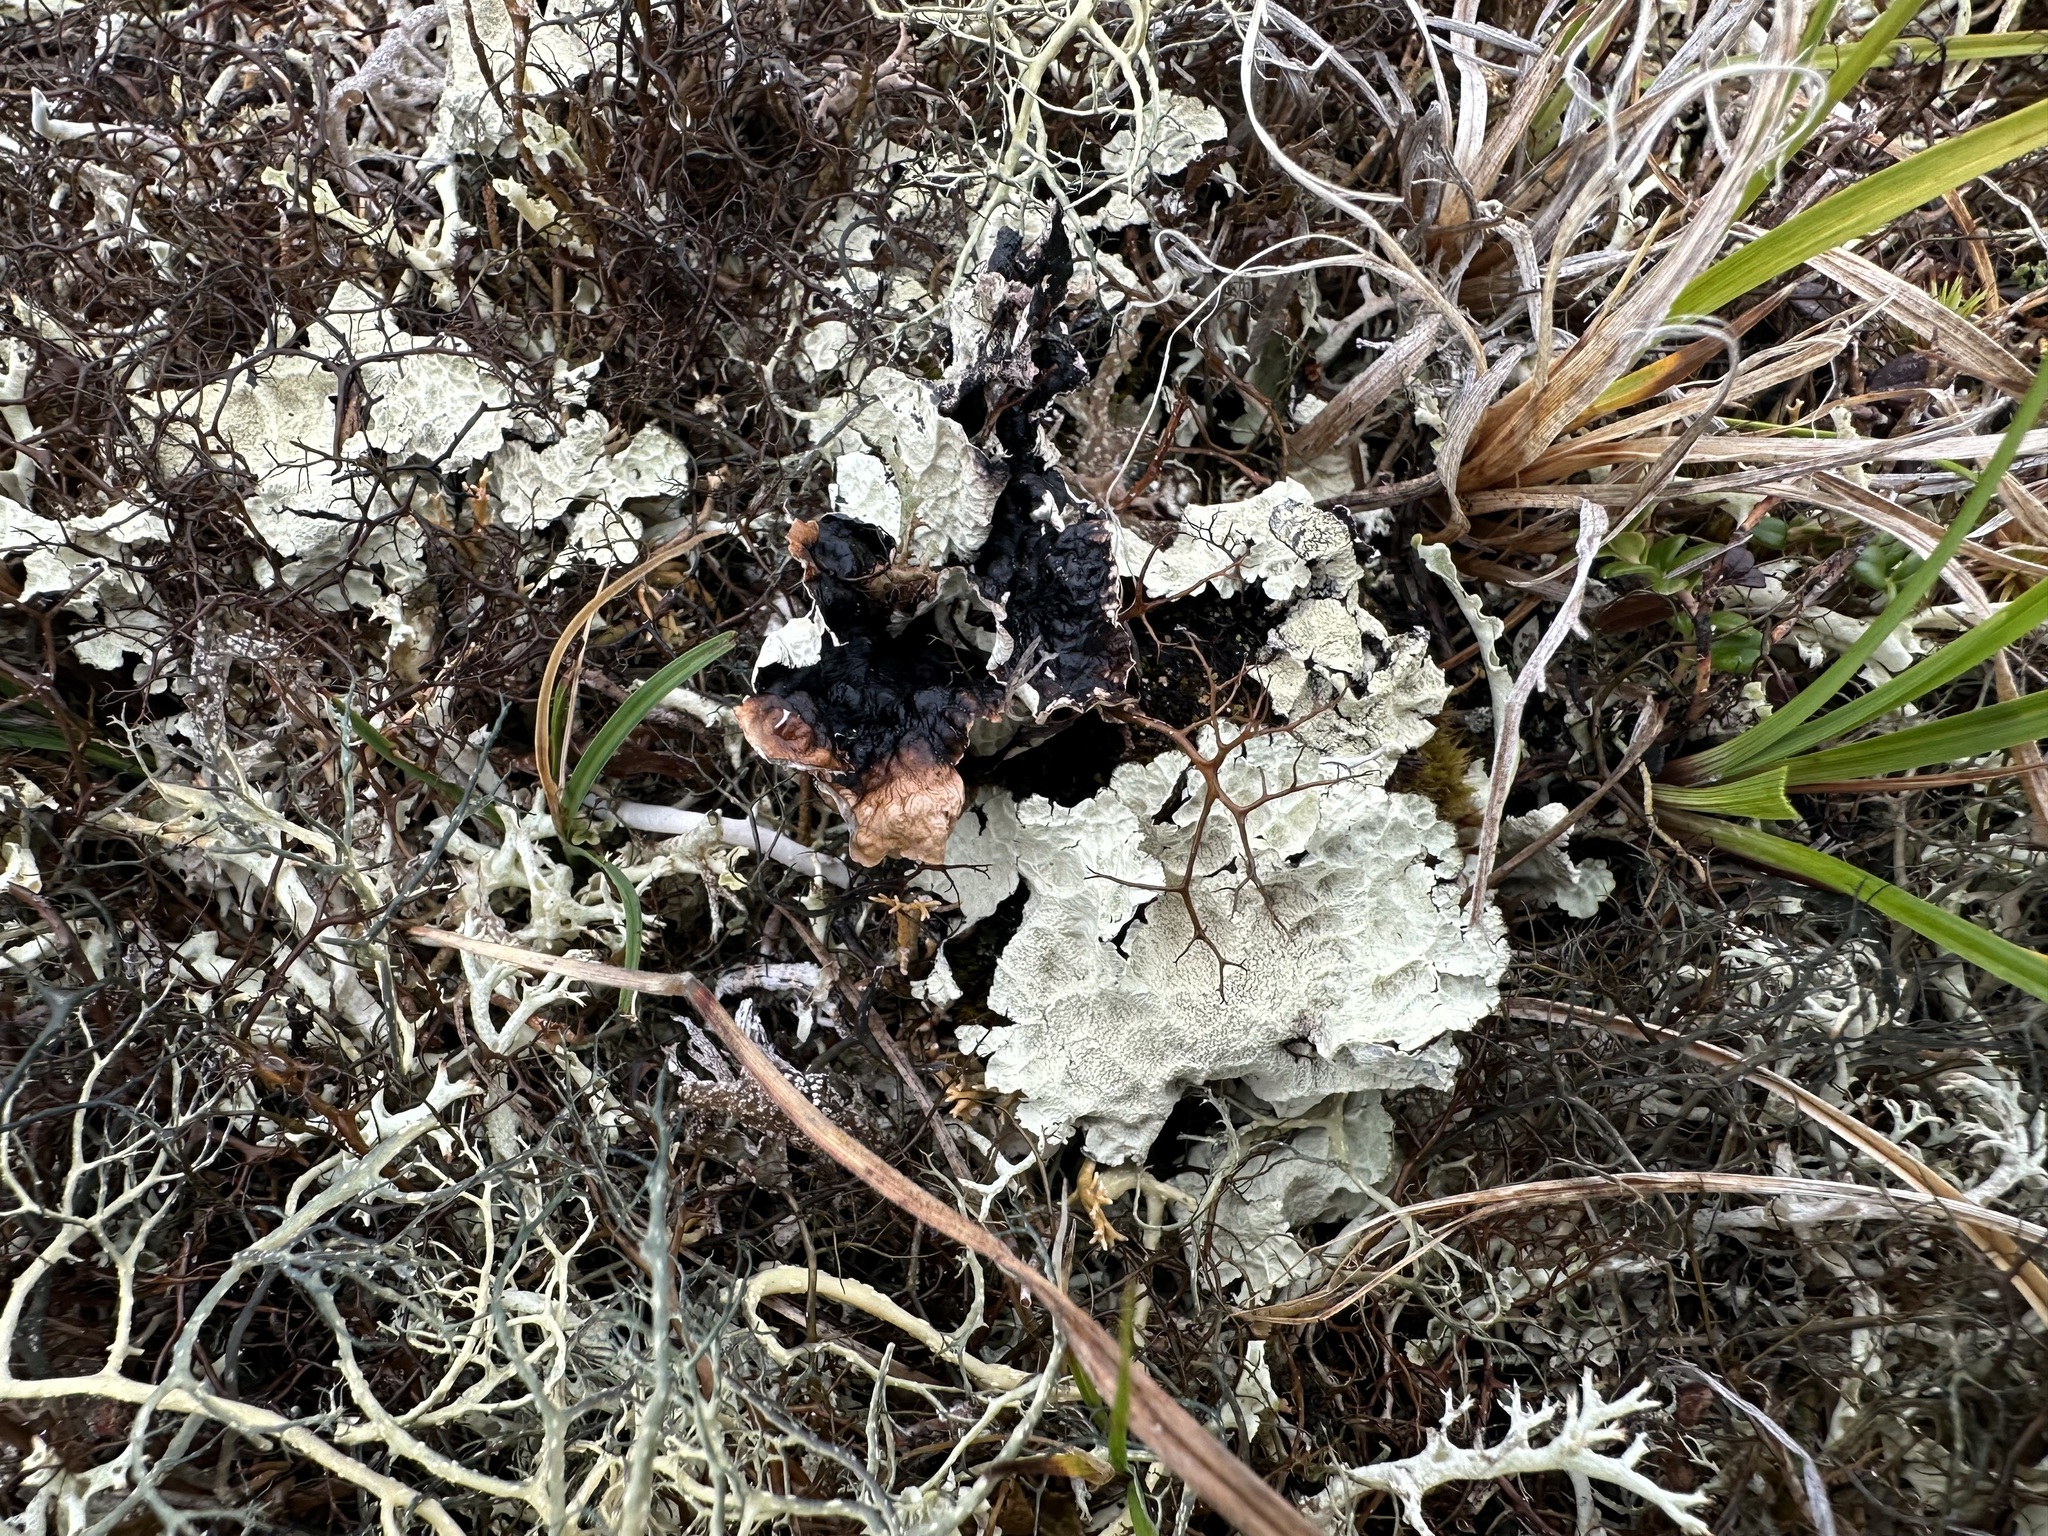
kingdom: Fungi
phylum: Ascomycota
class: Lecanoromycetes
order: Lecanorales
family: Parmeliaceae
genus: Asahinea
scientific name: Asahinea chrysantha
